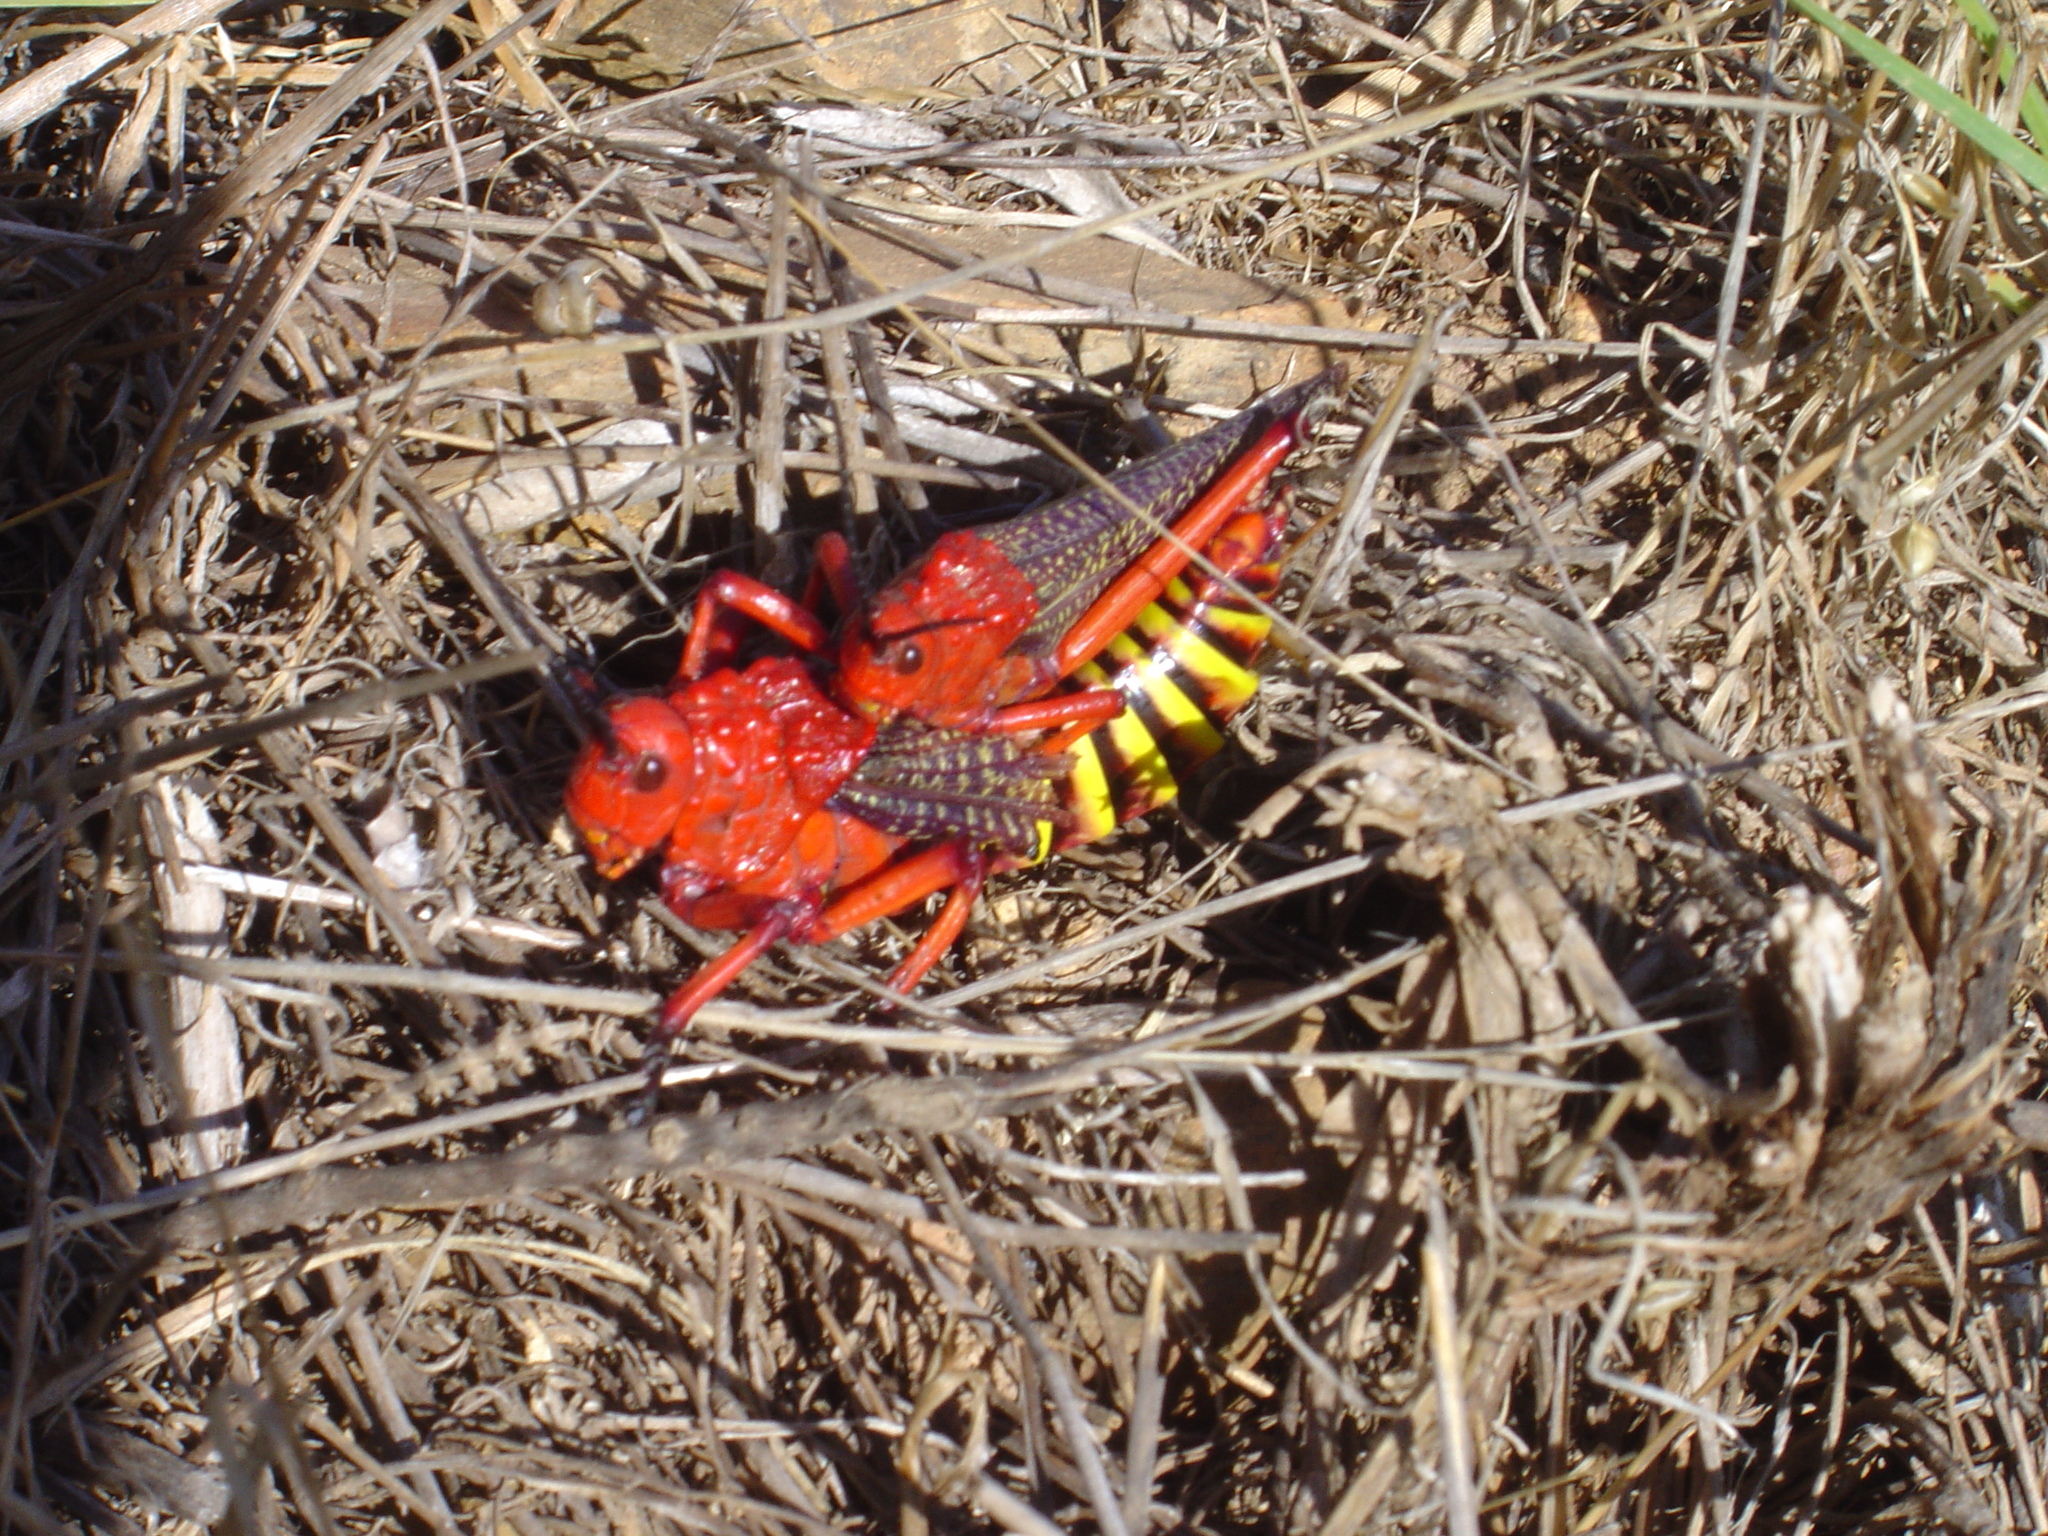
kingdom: Animalia
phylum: Arthropoda
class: Insecta
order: Orthoptera
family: Pyrgomorphidae
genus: Phymateus
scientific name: Phymateus morbillosus
